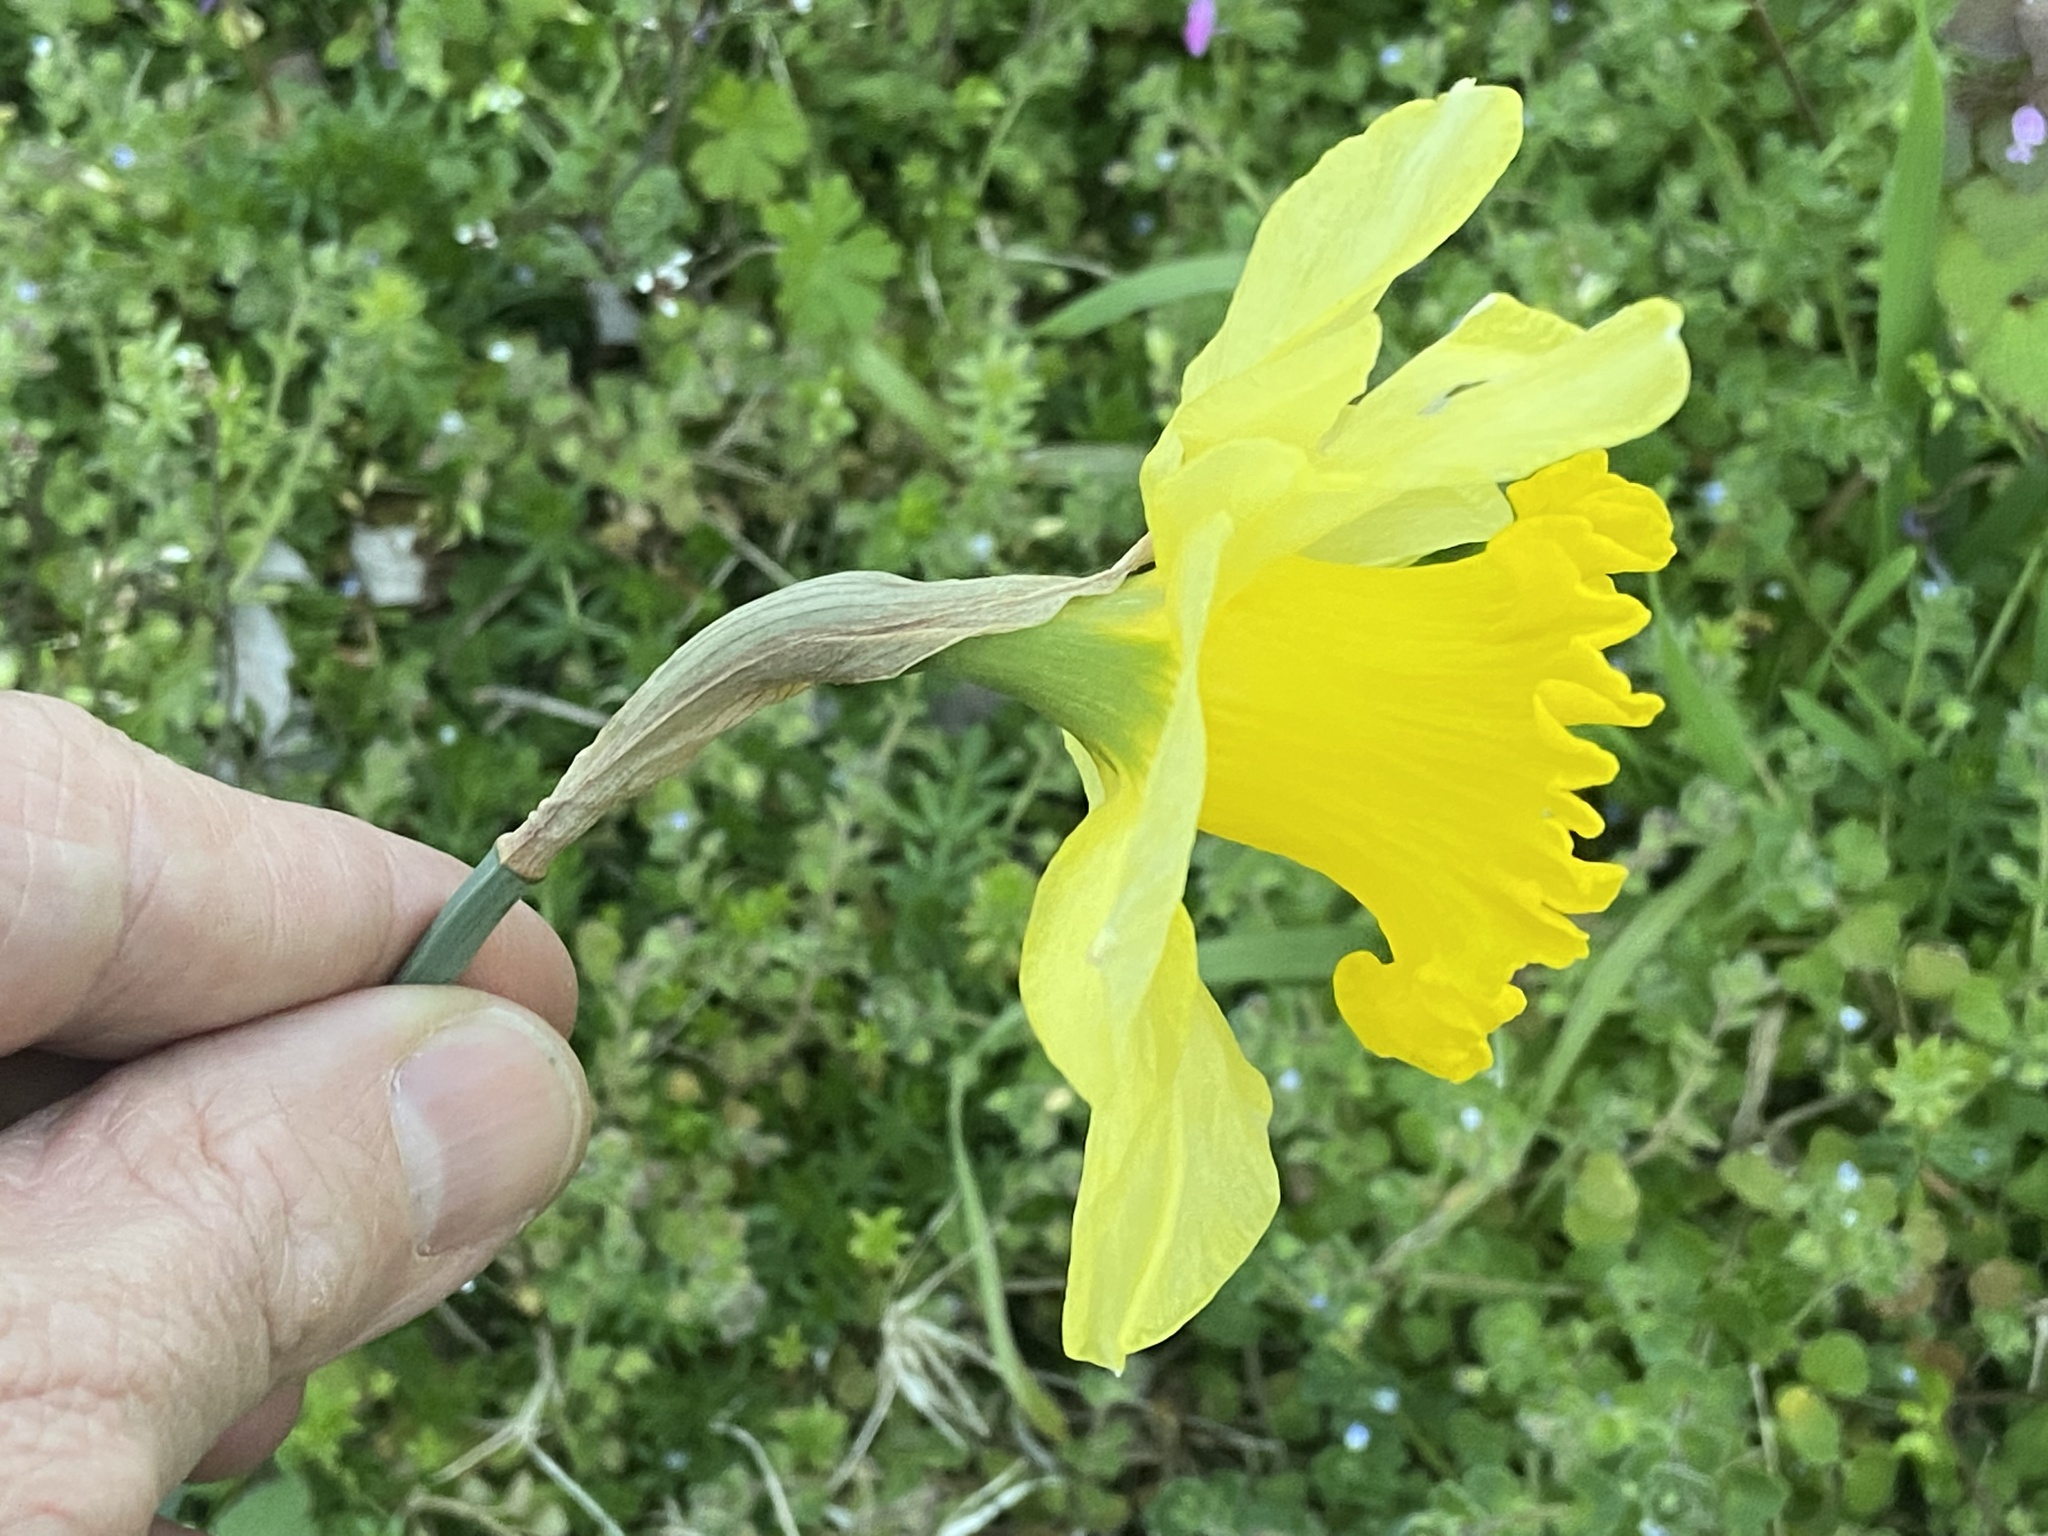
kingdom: Plantae
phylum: Tracheophyta
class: Liliopsida
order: Asparagales
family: Amaryllidaceae
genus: Narcissus
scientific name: Narcissus pseudonarcissus
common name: Daffodil
